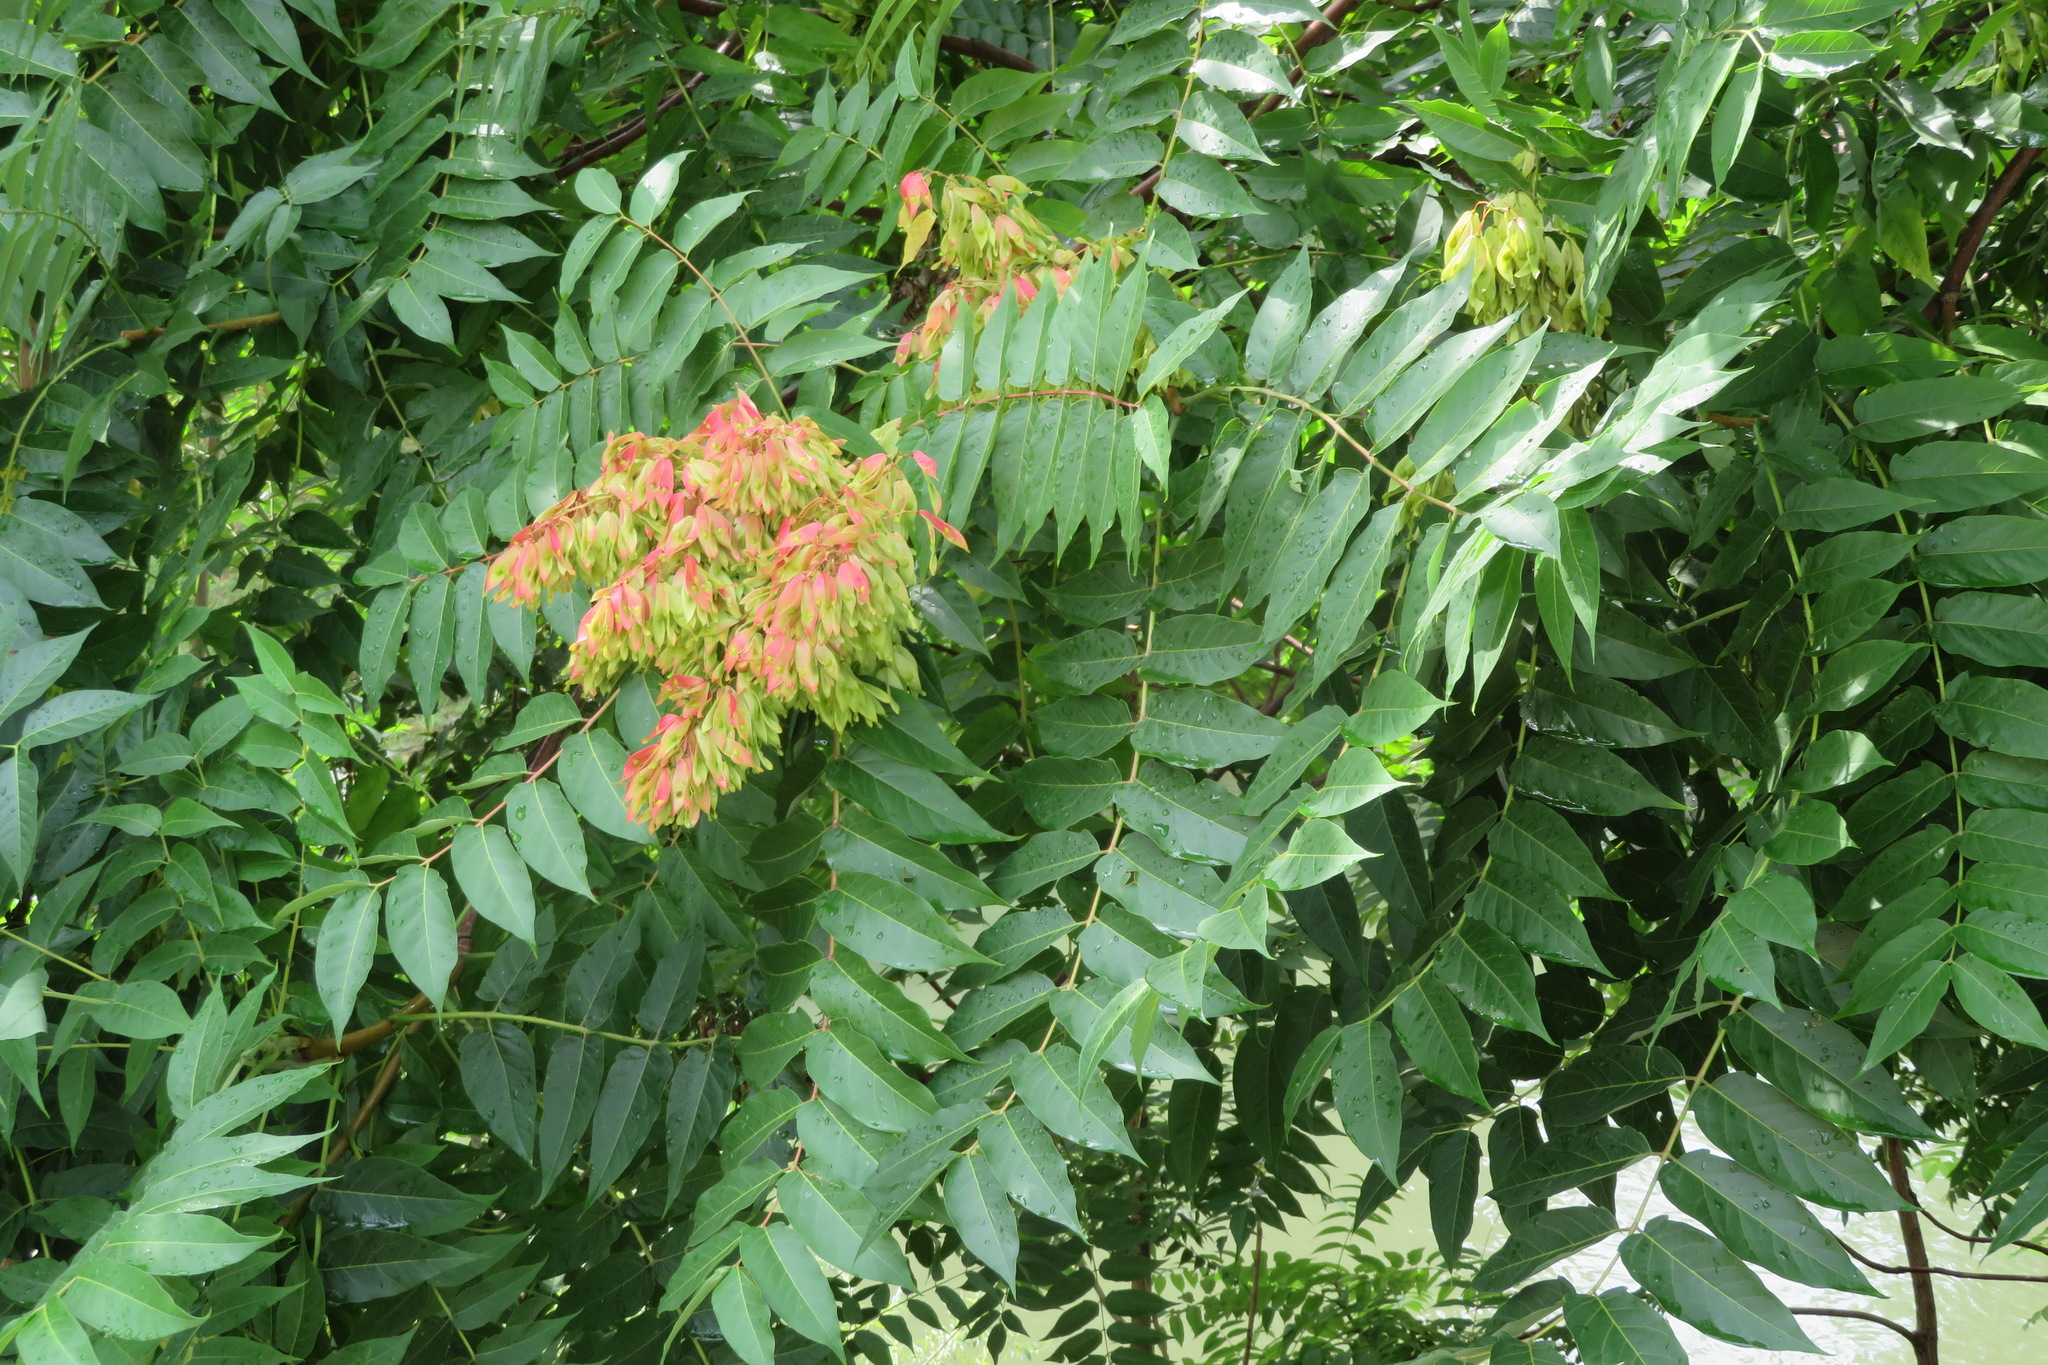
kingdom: Plantae
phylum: Tracheophyta
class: Magnoliopsida
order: Sapindales
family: Simaroubaceae
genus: Ailanthus
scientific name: Ailanthus altissima
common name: Tree-of-heaven
